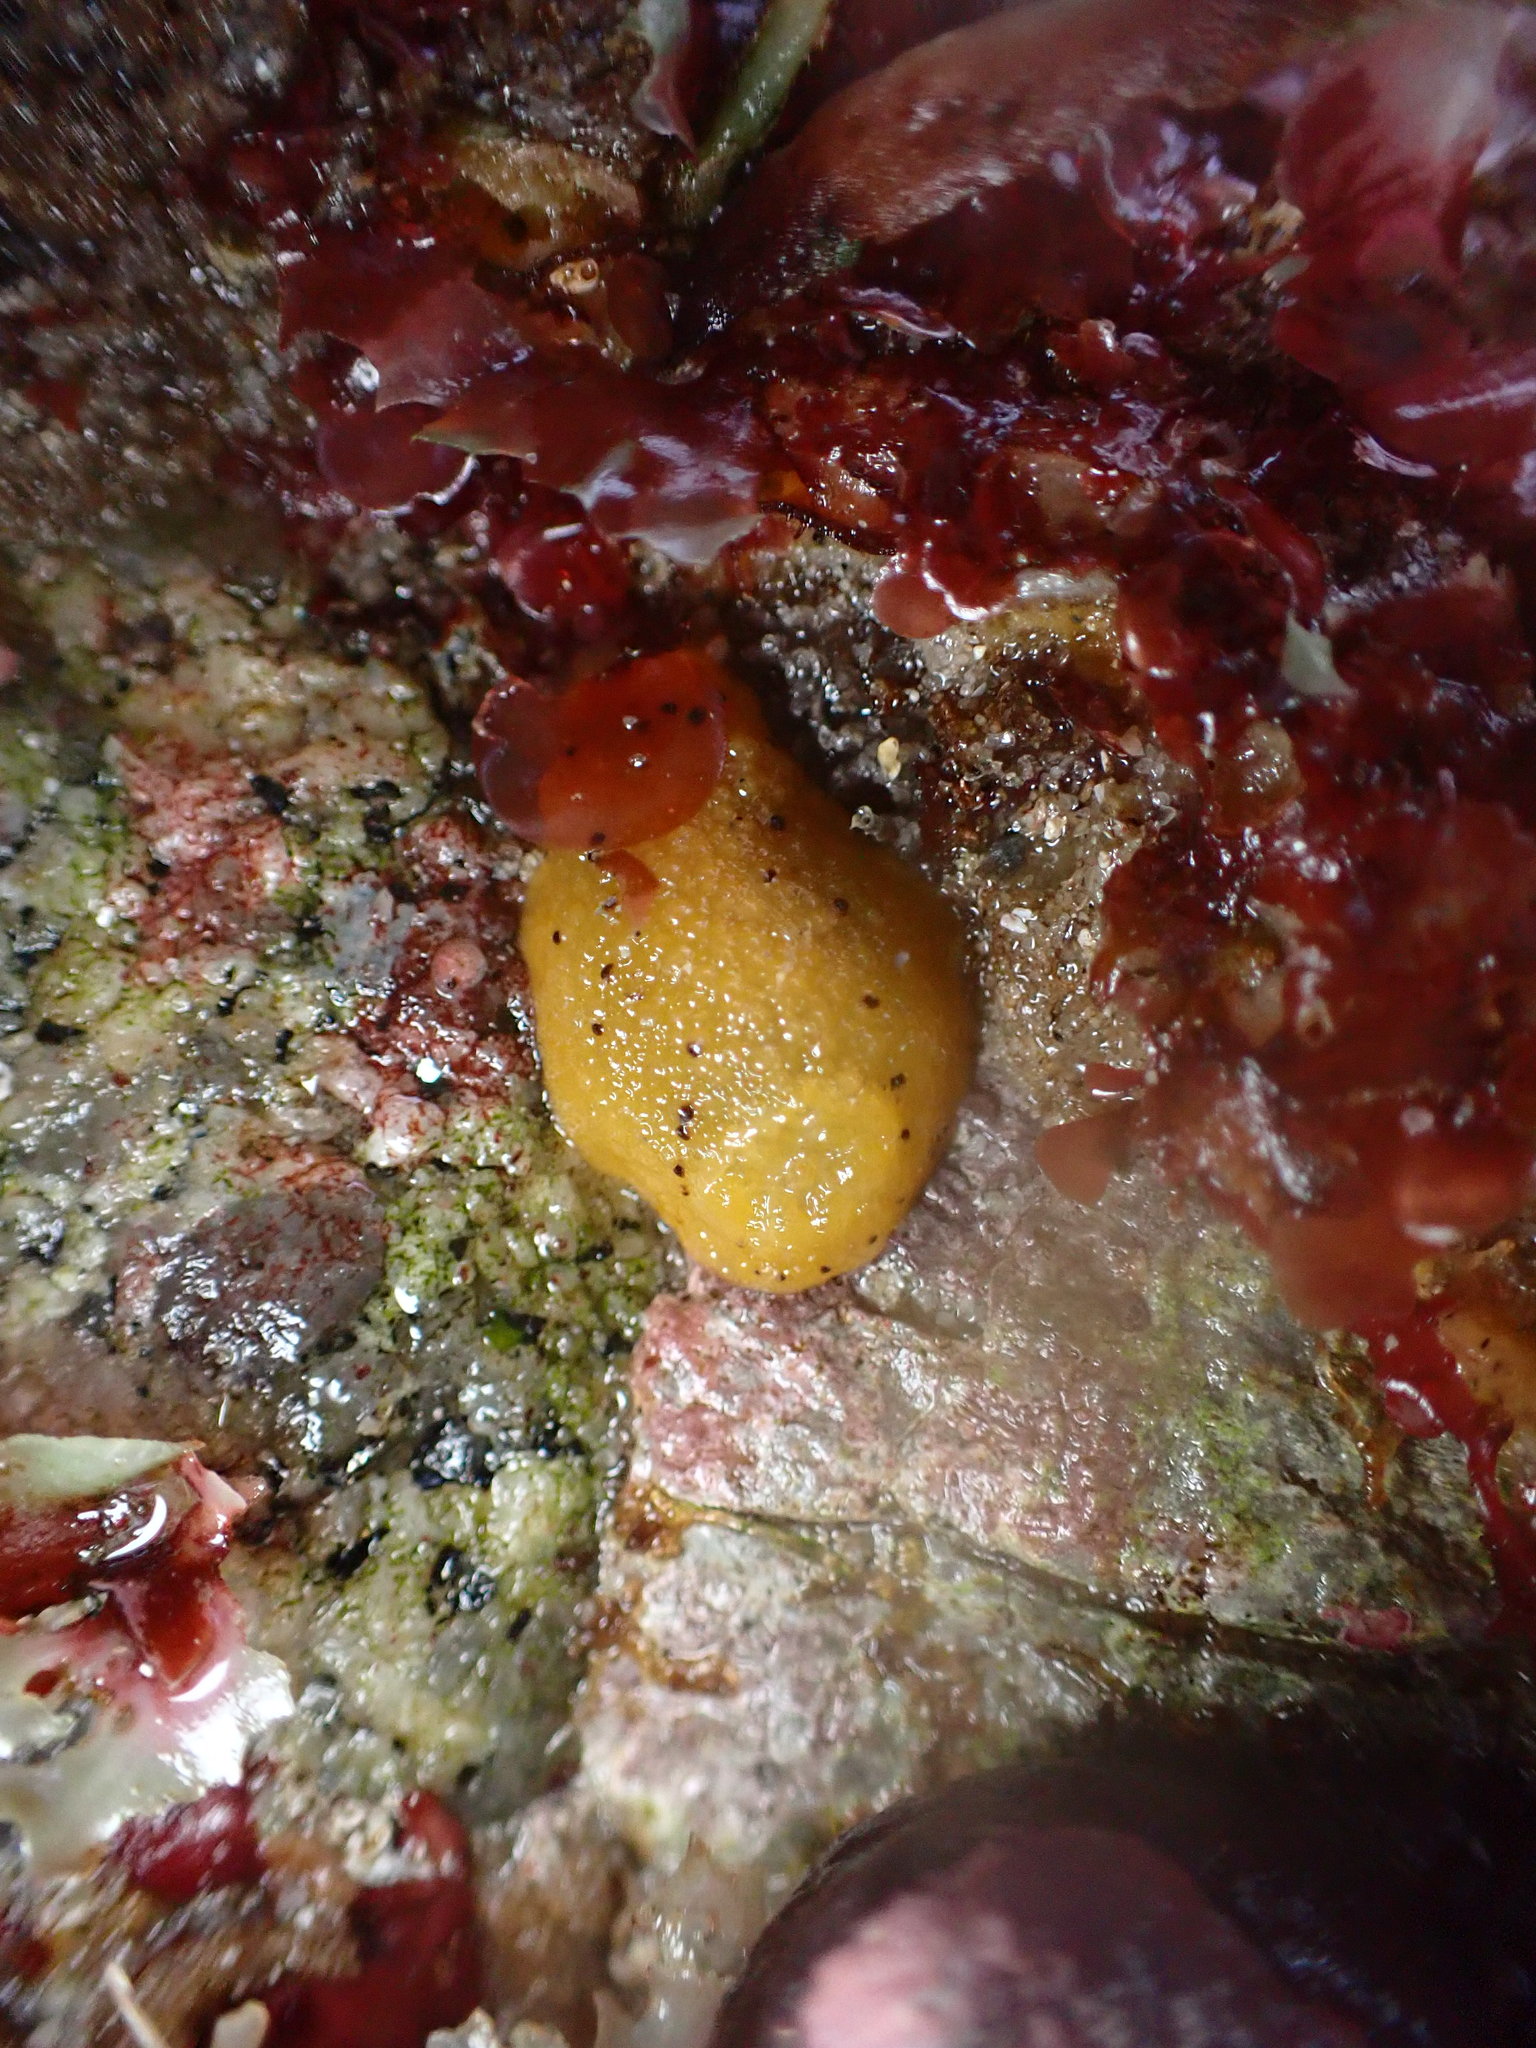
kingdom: Animalia
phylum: Mollusca
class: Gastropoda
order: Nudibranchia
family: Dorididae
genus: Doris
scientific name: Doris montereyensis
